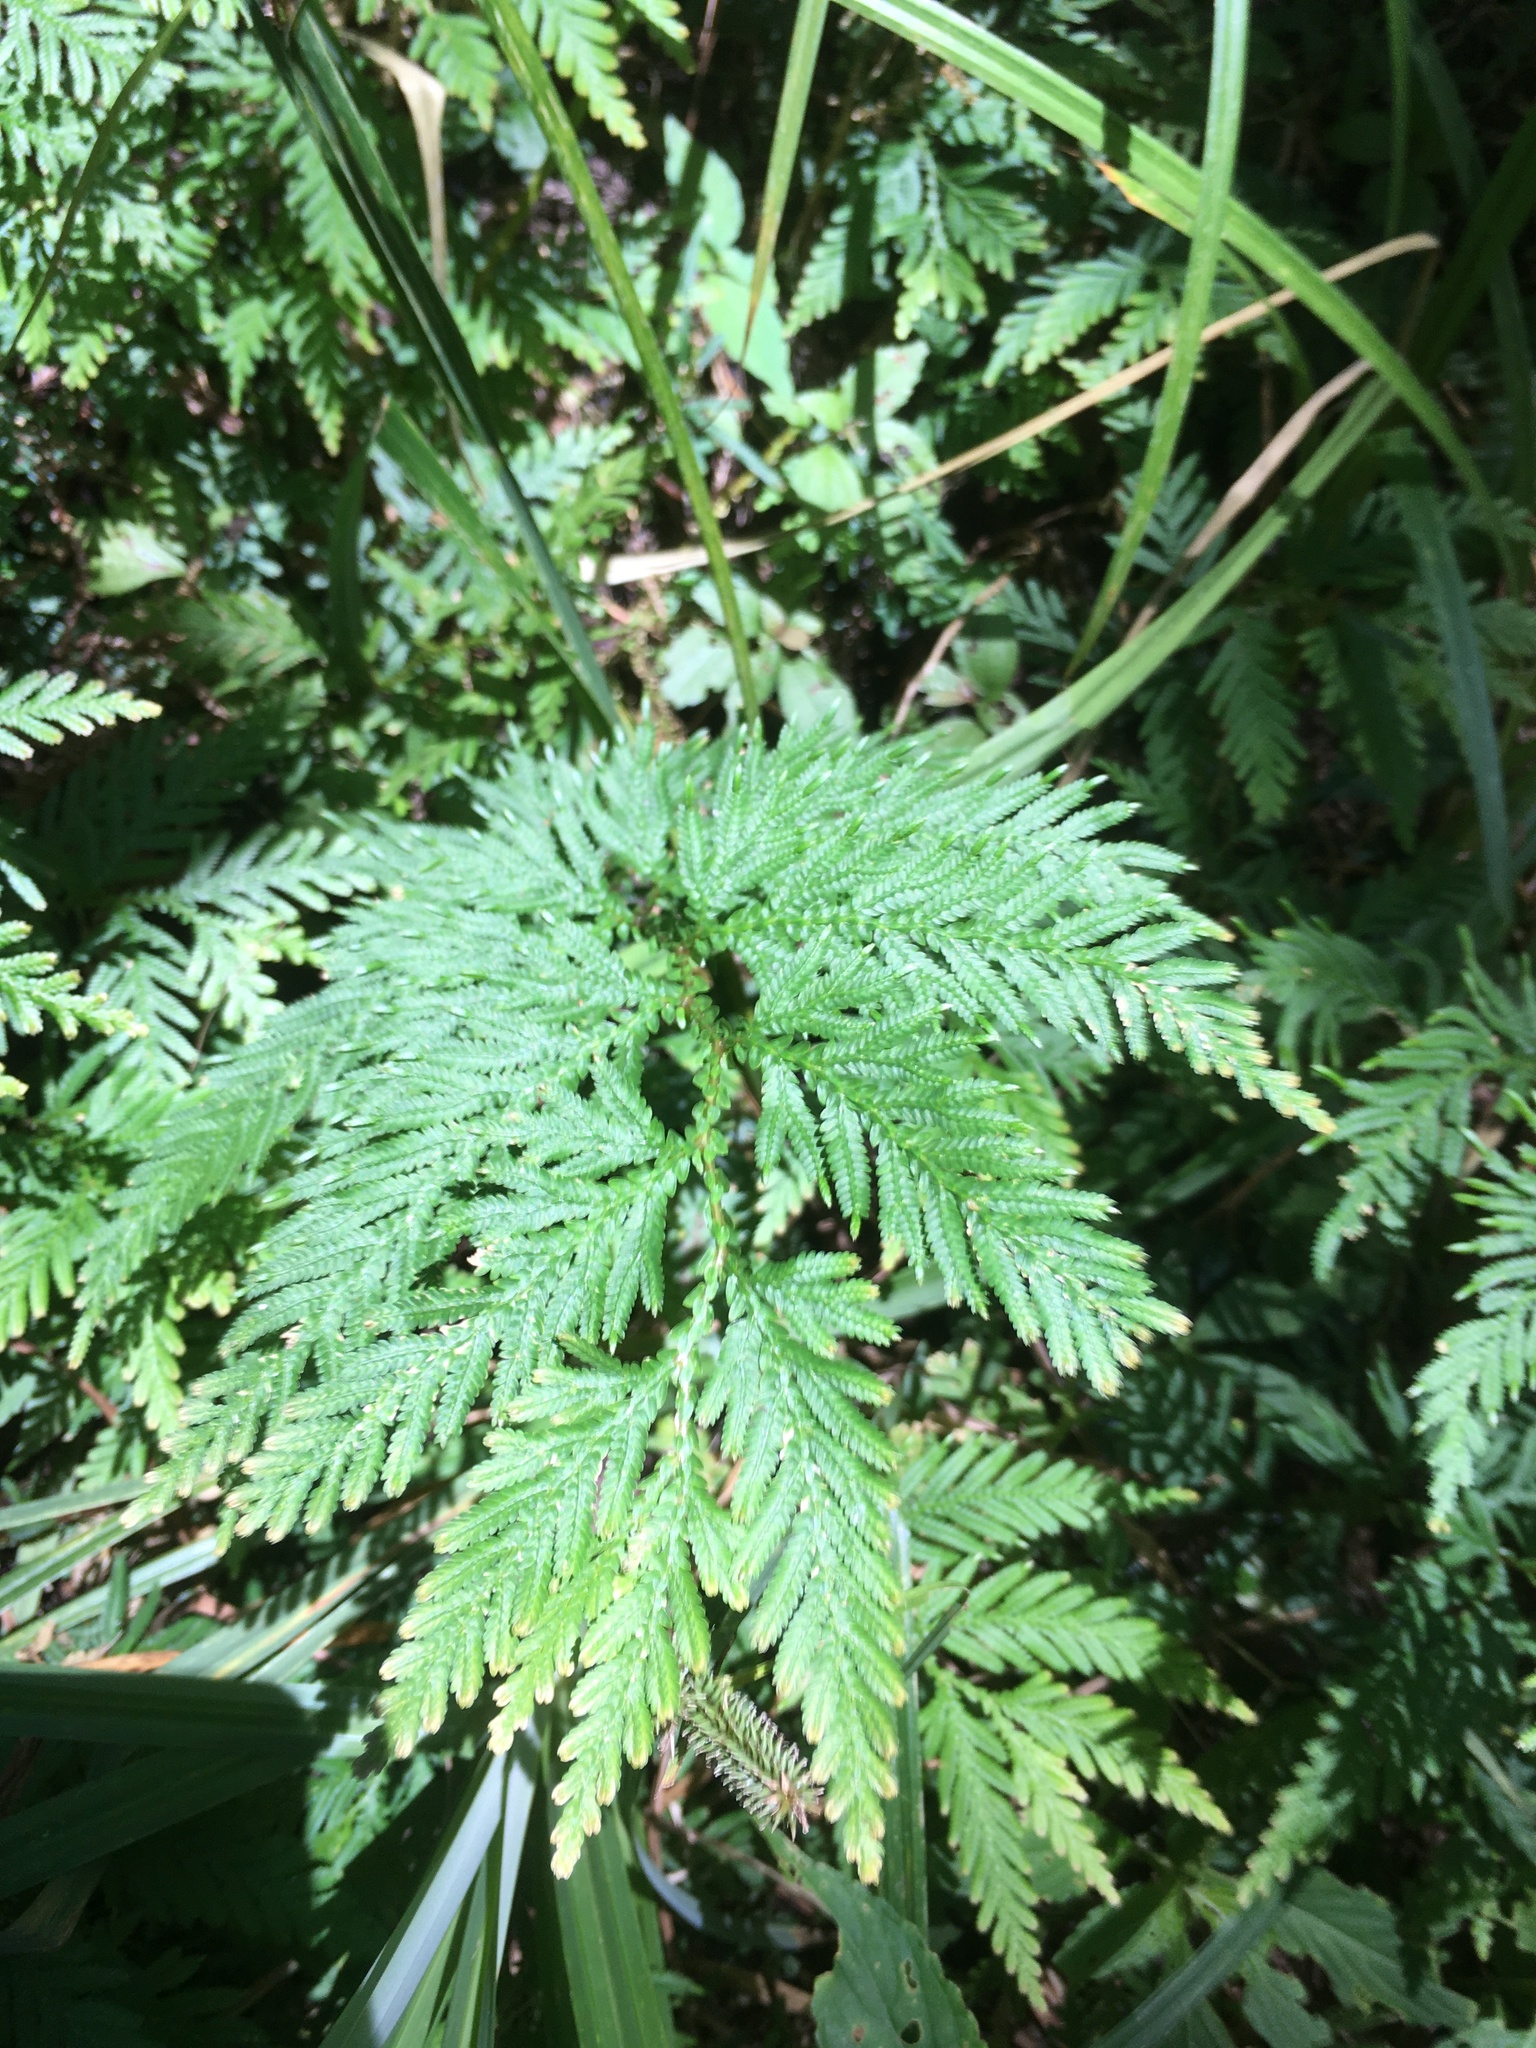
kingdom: Plantae
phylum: Tracheophyta
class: Lycopodiopsida
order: Selaginellales
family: Selaginellaceae
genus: Selaginella
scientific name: Selaginella delicatula
